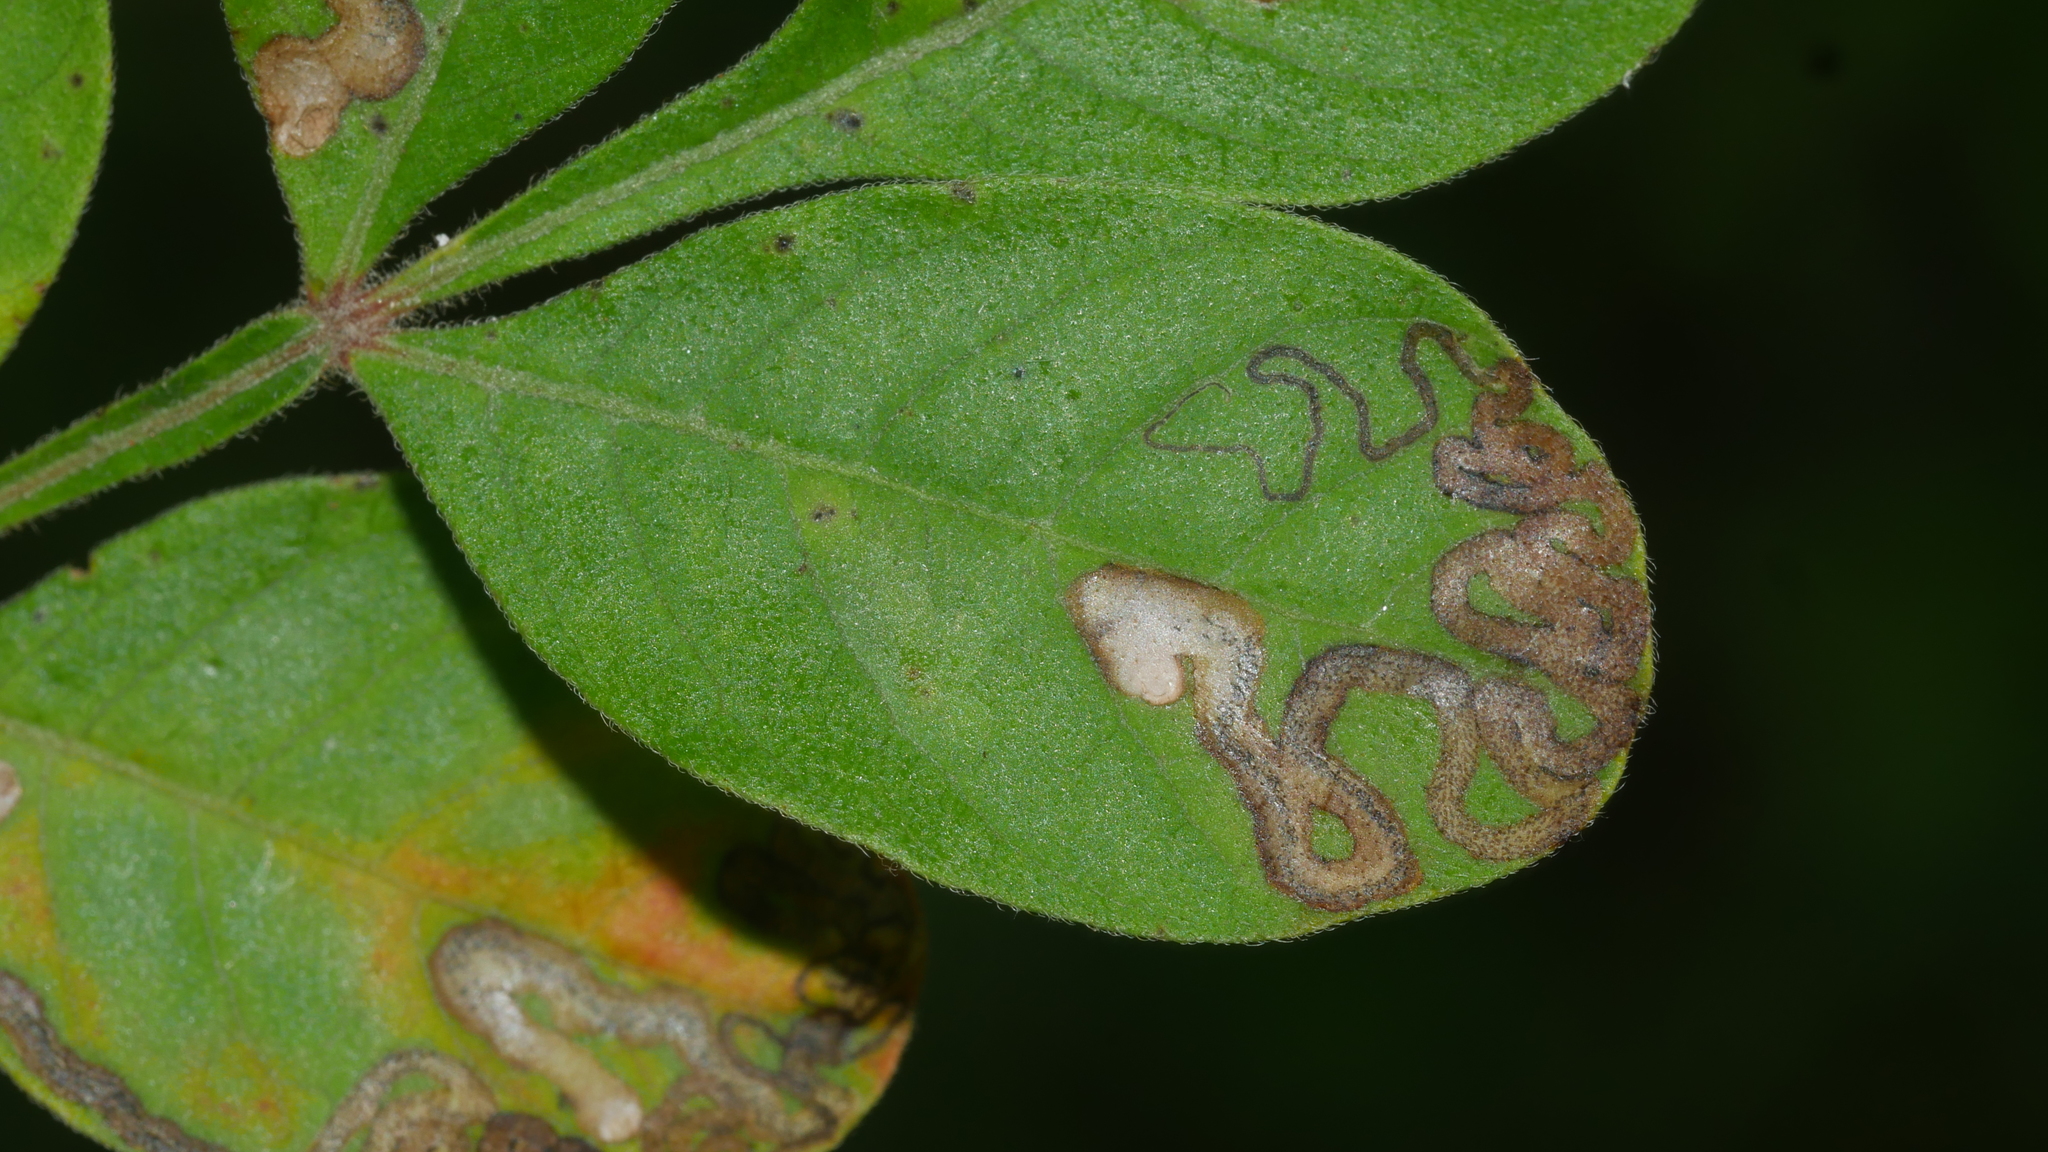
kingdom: Animalia
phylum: Arthropoda
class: Insecta
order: Lepidoptera
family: Nepticulidae
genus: Stigmella
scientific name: Stigmella intermedia
